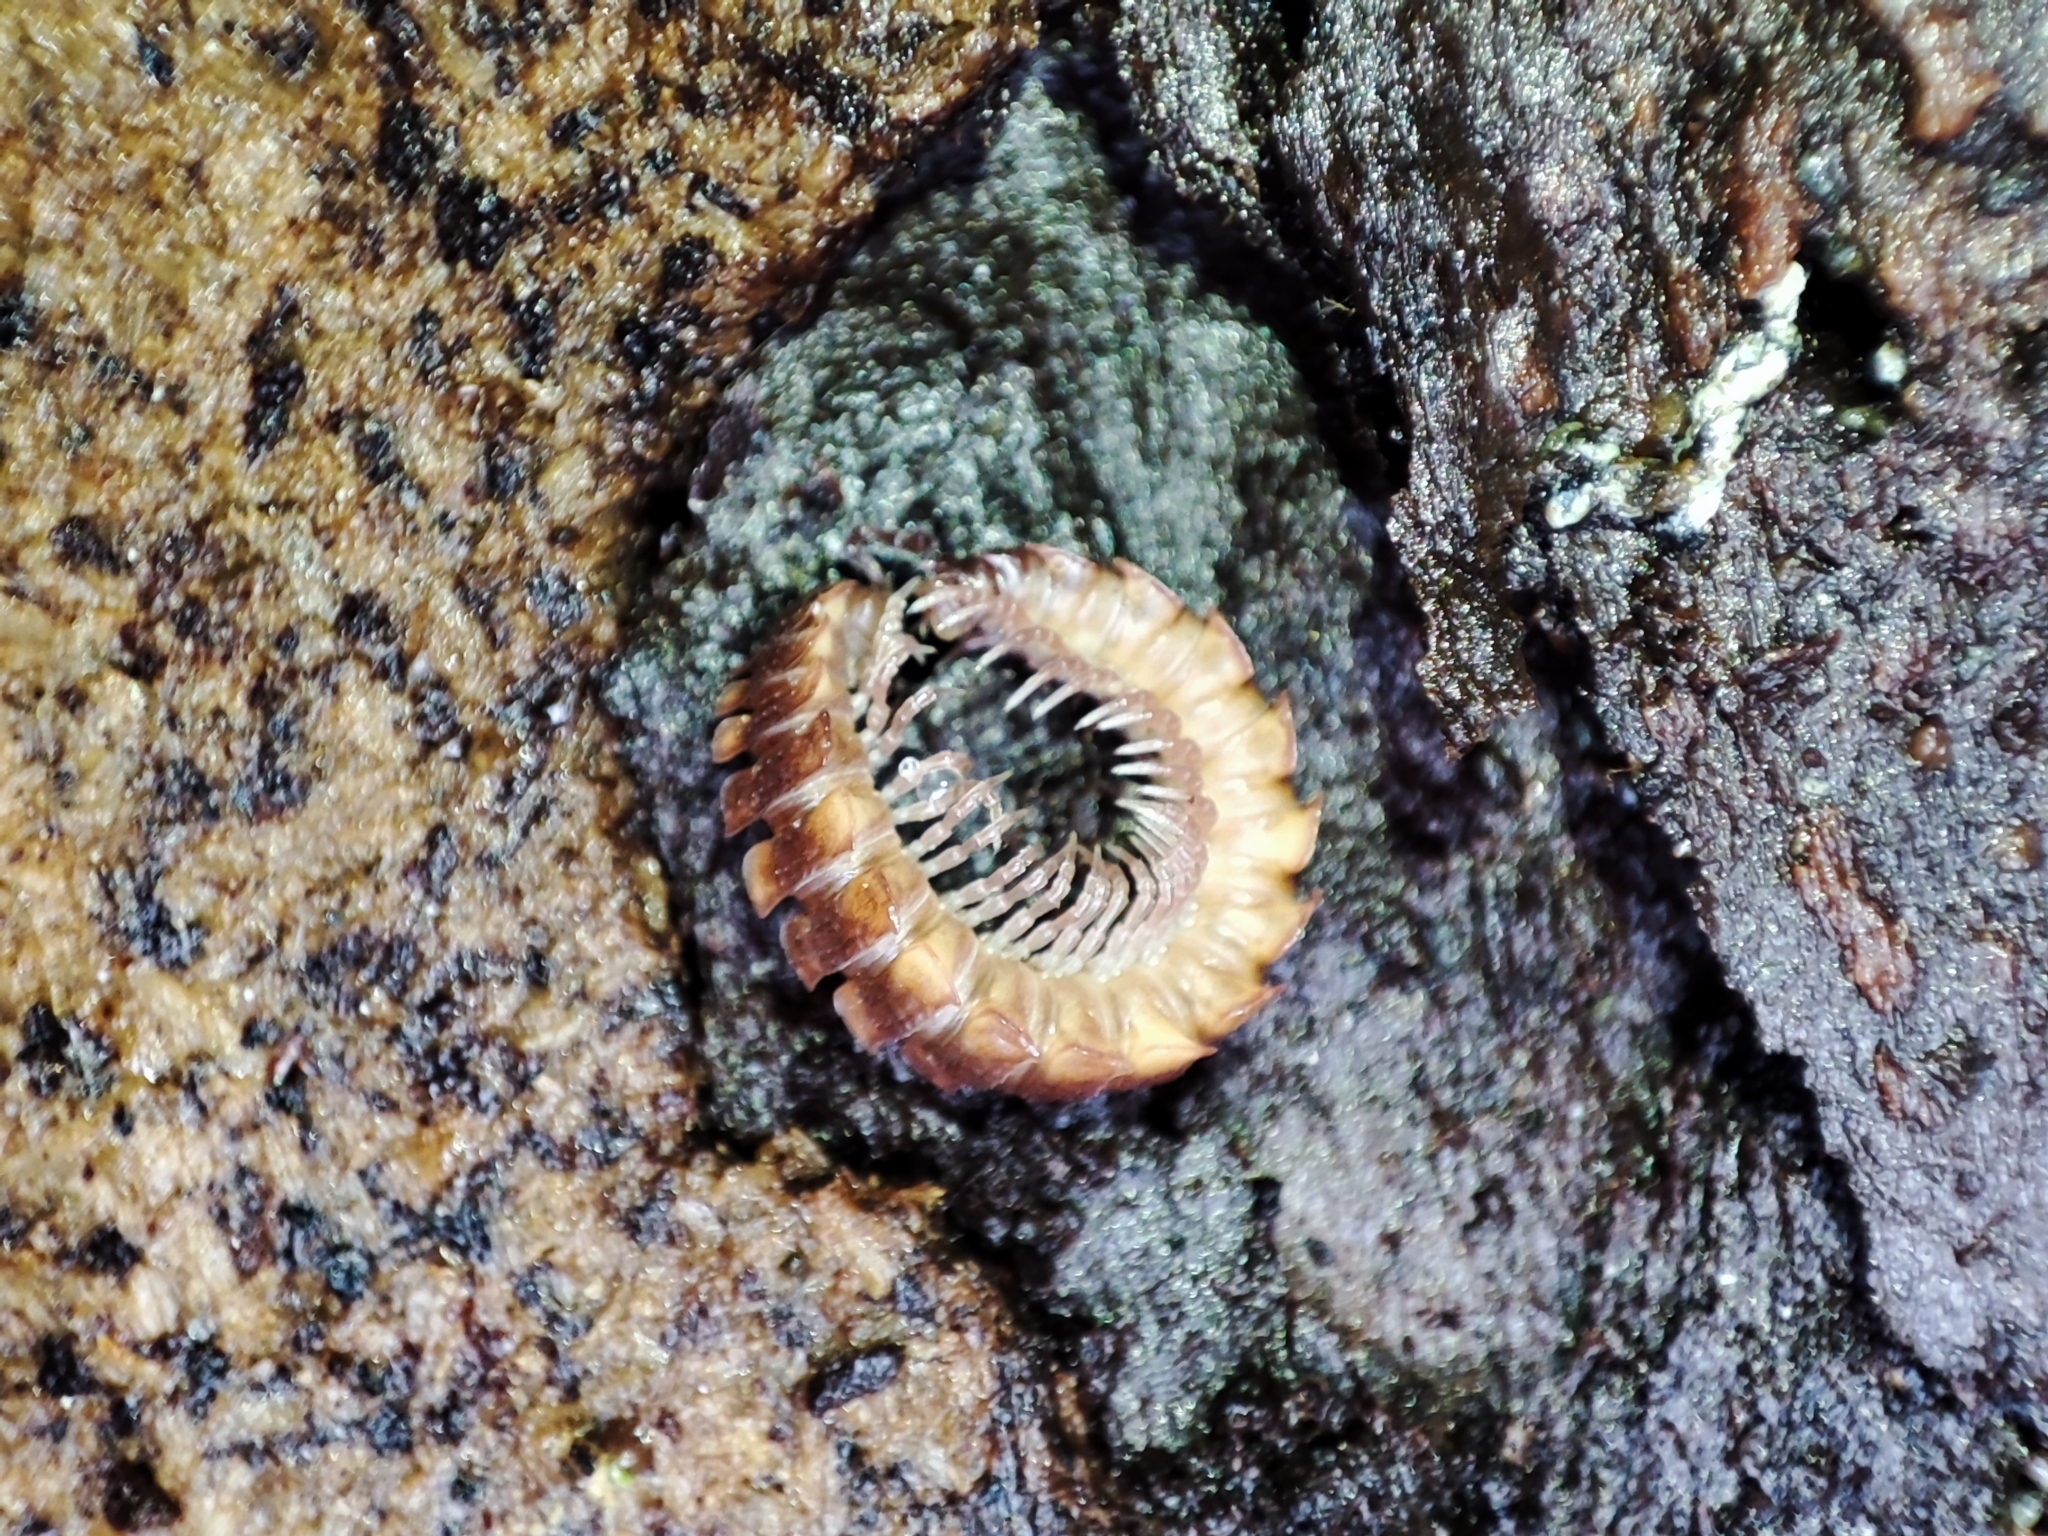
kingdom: Animalia
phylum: Arthropoda
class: Diplopoda
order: Polydesmida
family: Polydesmidae
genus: Polydesmus
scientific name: Polydesmus complanatus
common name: Flat-backed millipede
